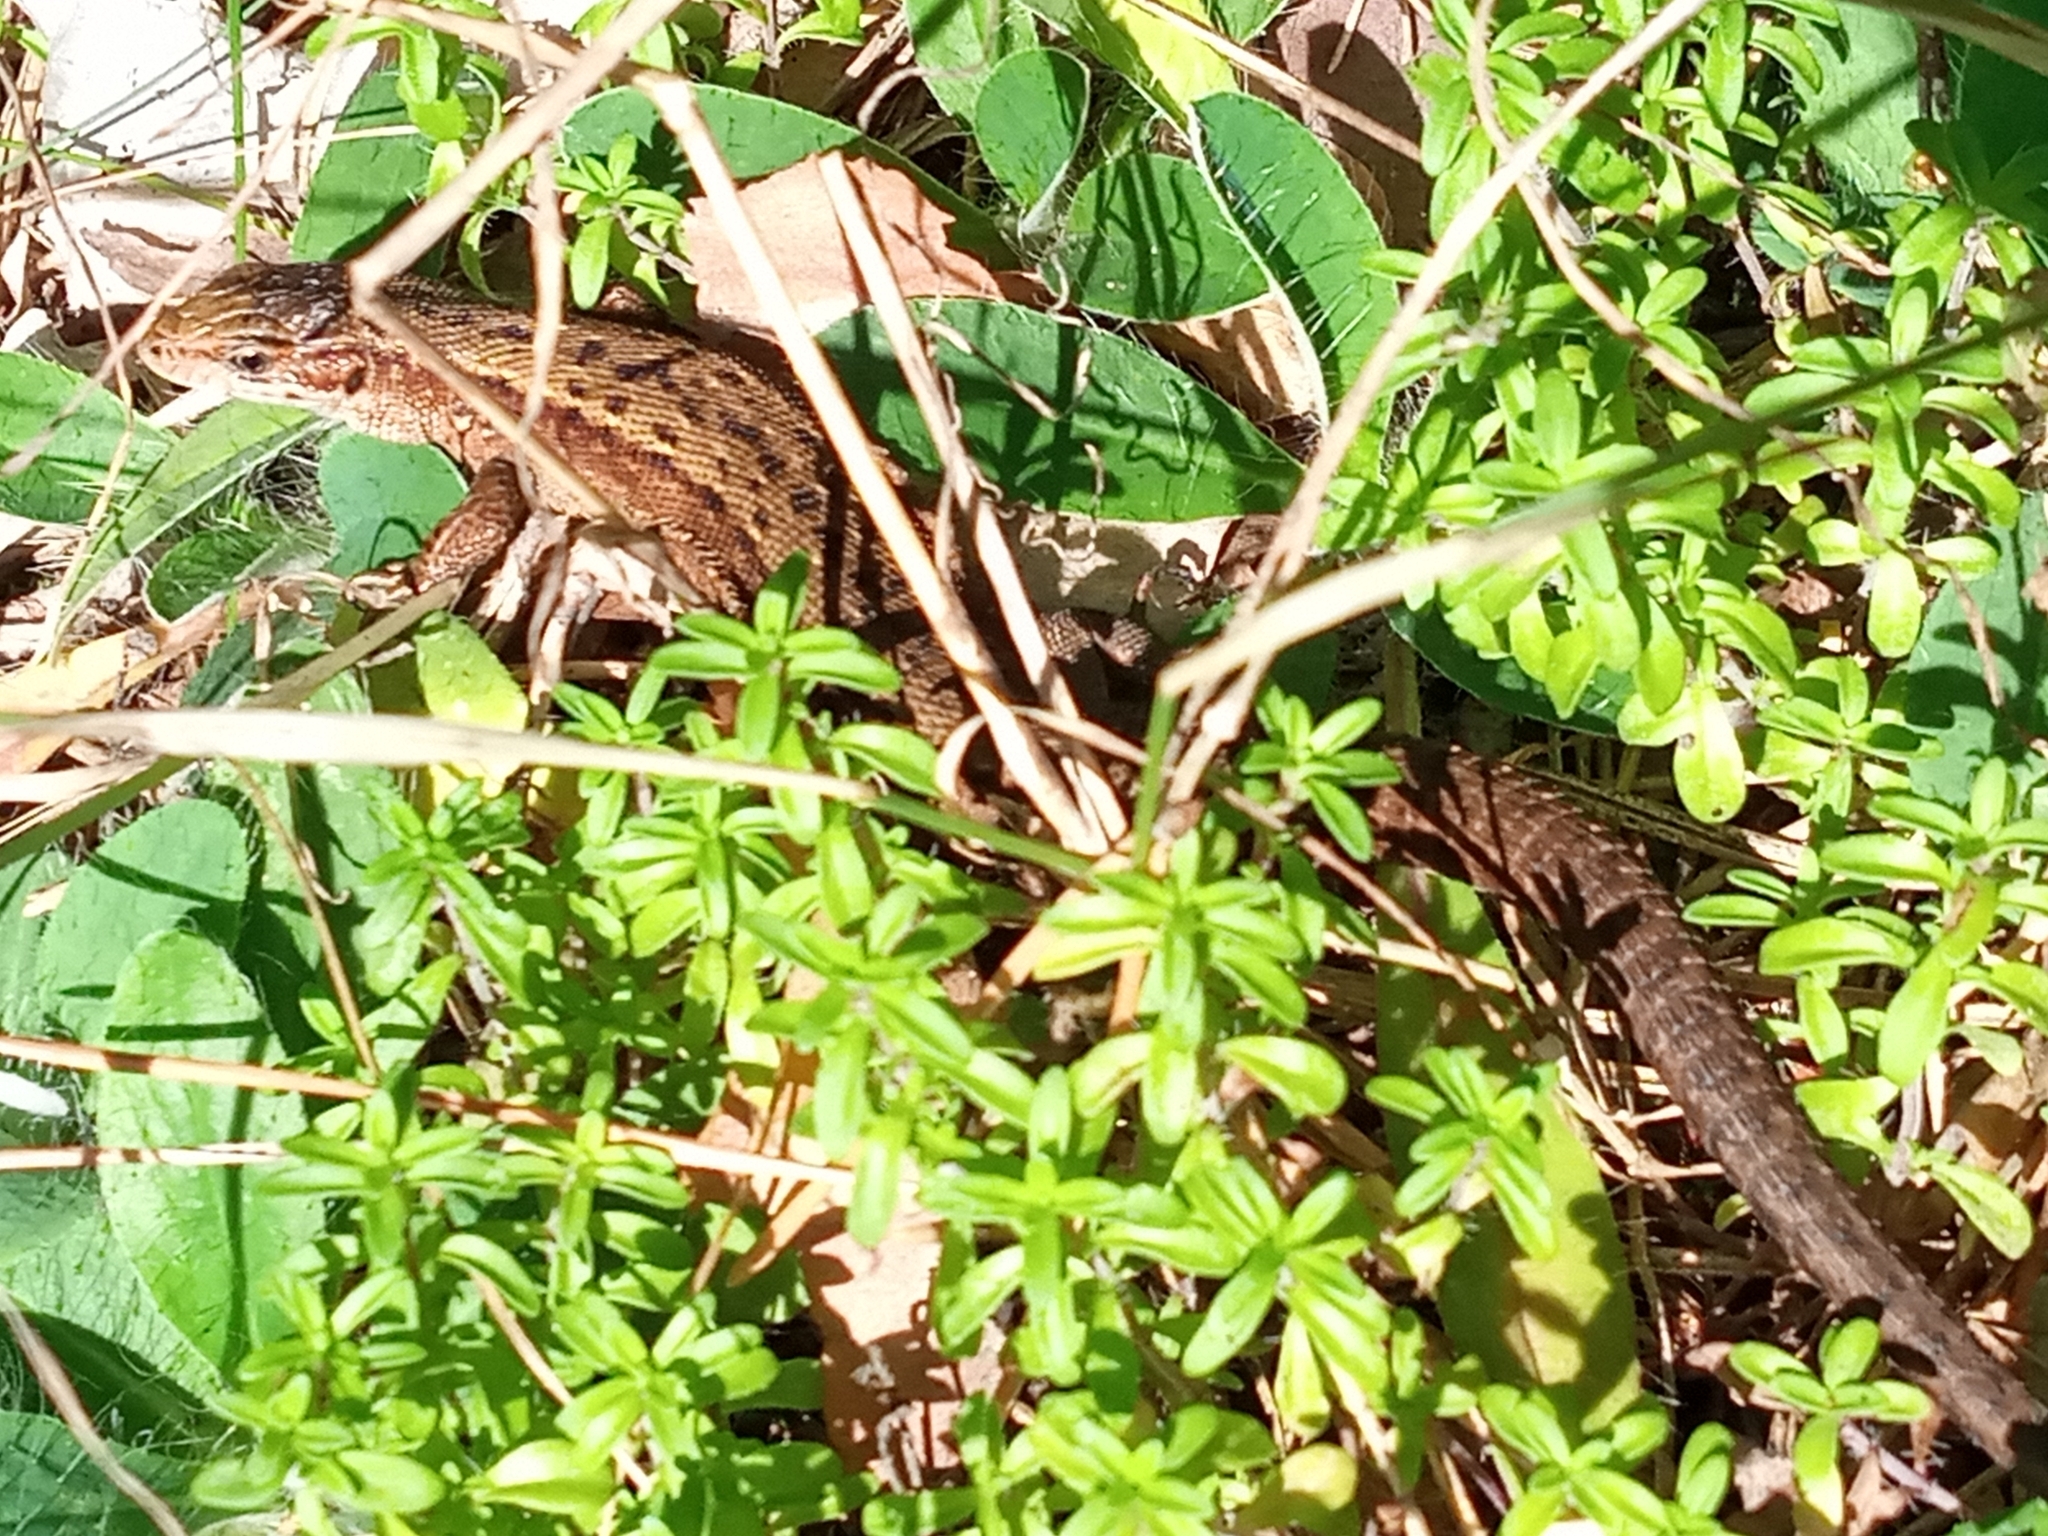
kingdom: Animalia
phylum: Chordata
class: Squamata
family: Lacertidae
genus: Zootoca
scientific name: Zootoca vivipara
